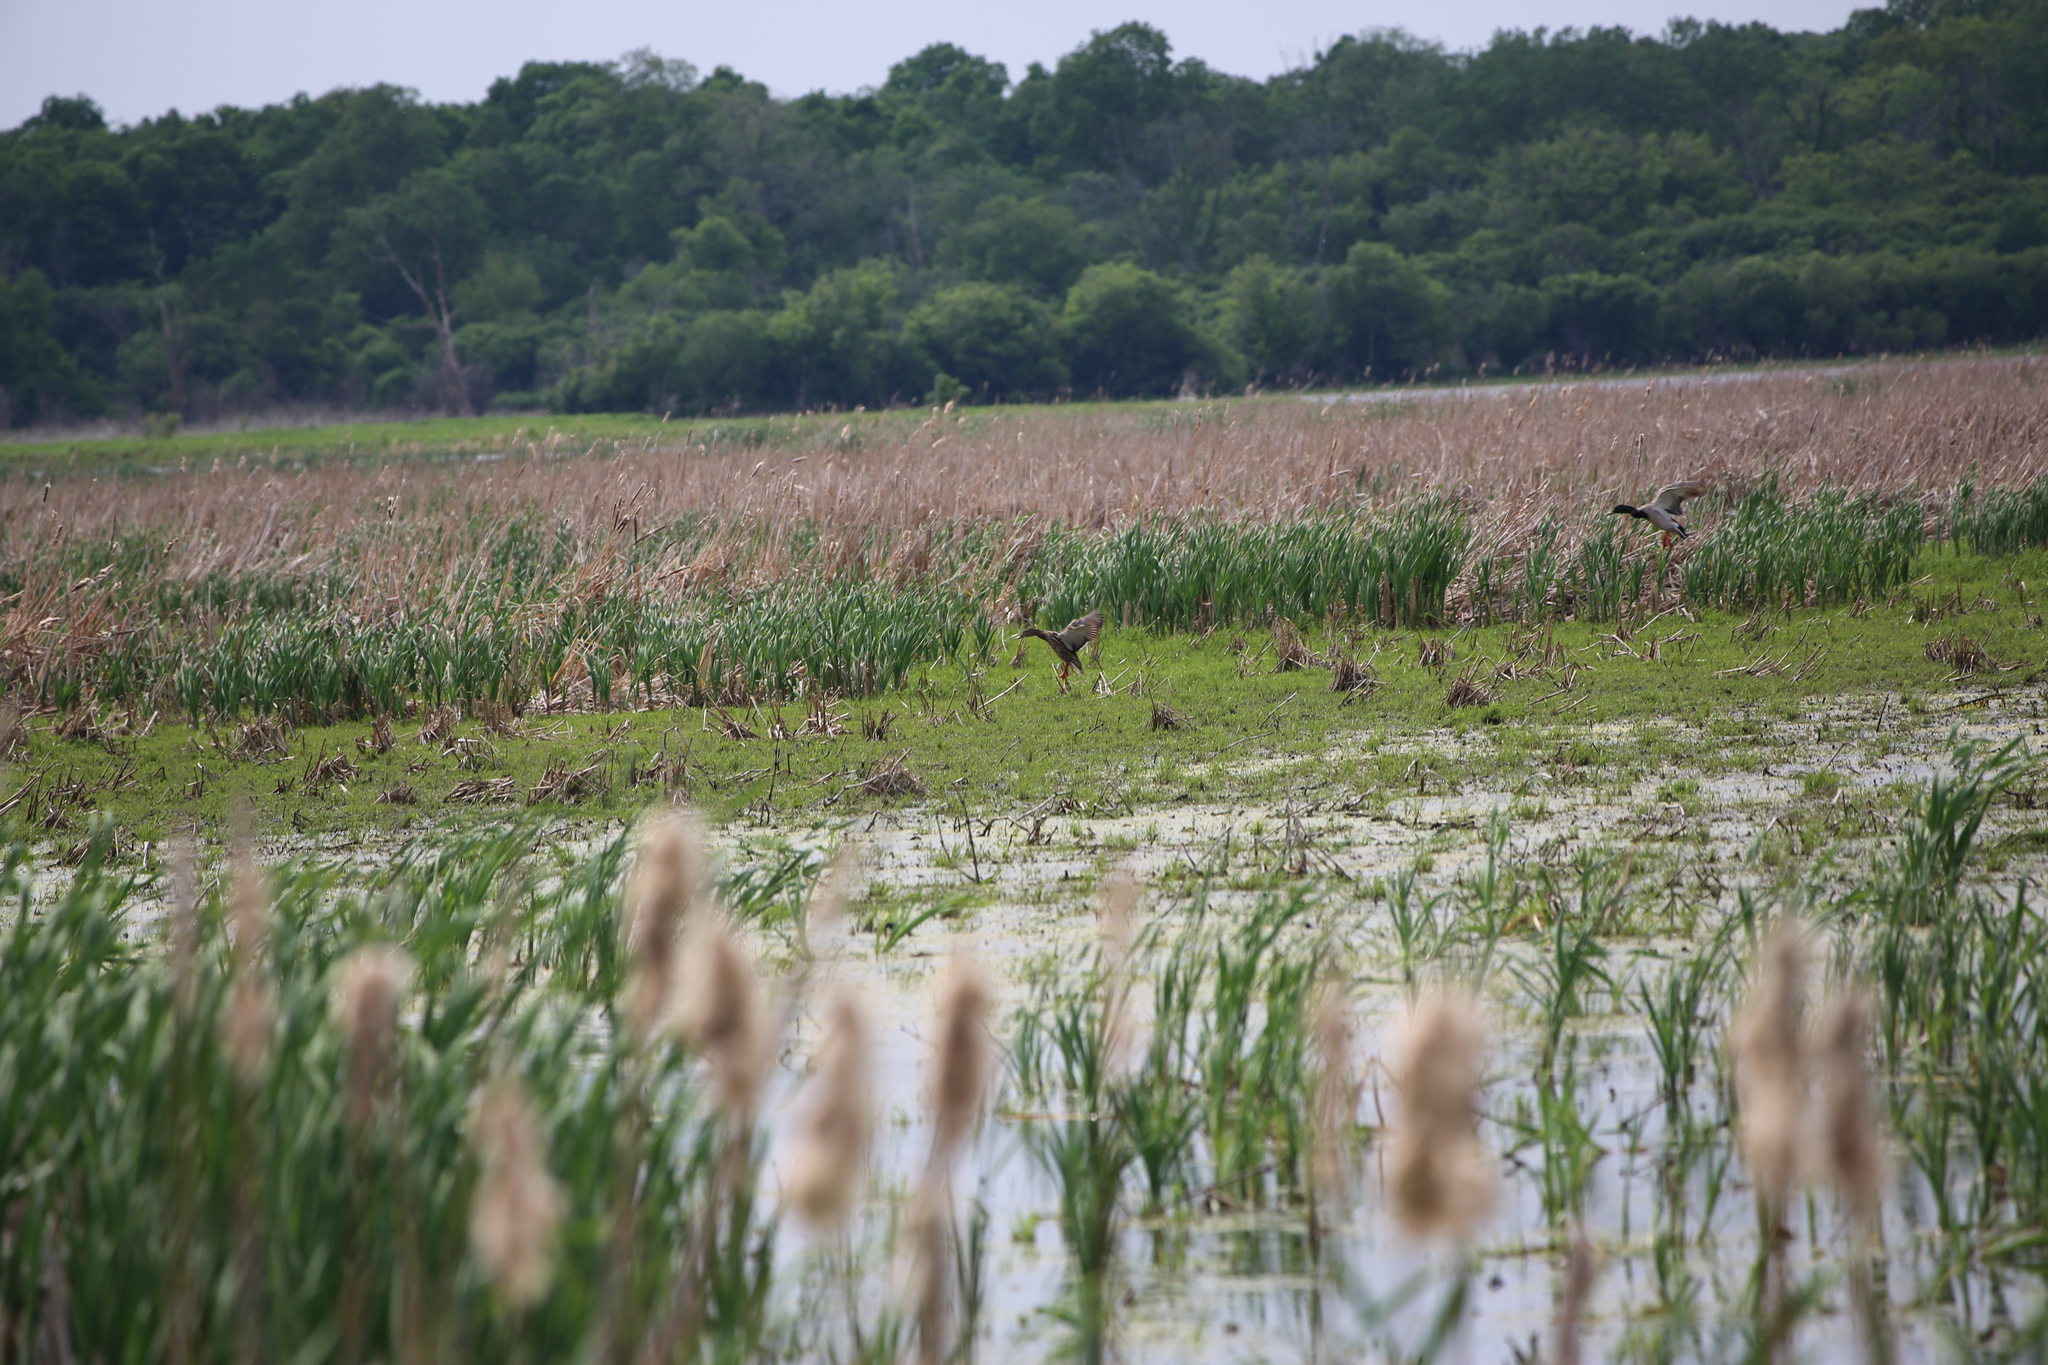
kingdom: Animalia
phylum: Chordata
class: Aves
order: Anseriformes
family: Anatidae
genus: Anas
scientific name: Anas platyrhynchos
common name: Mallard
